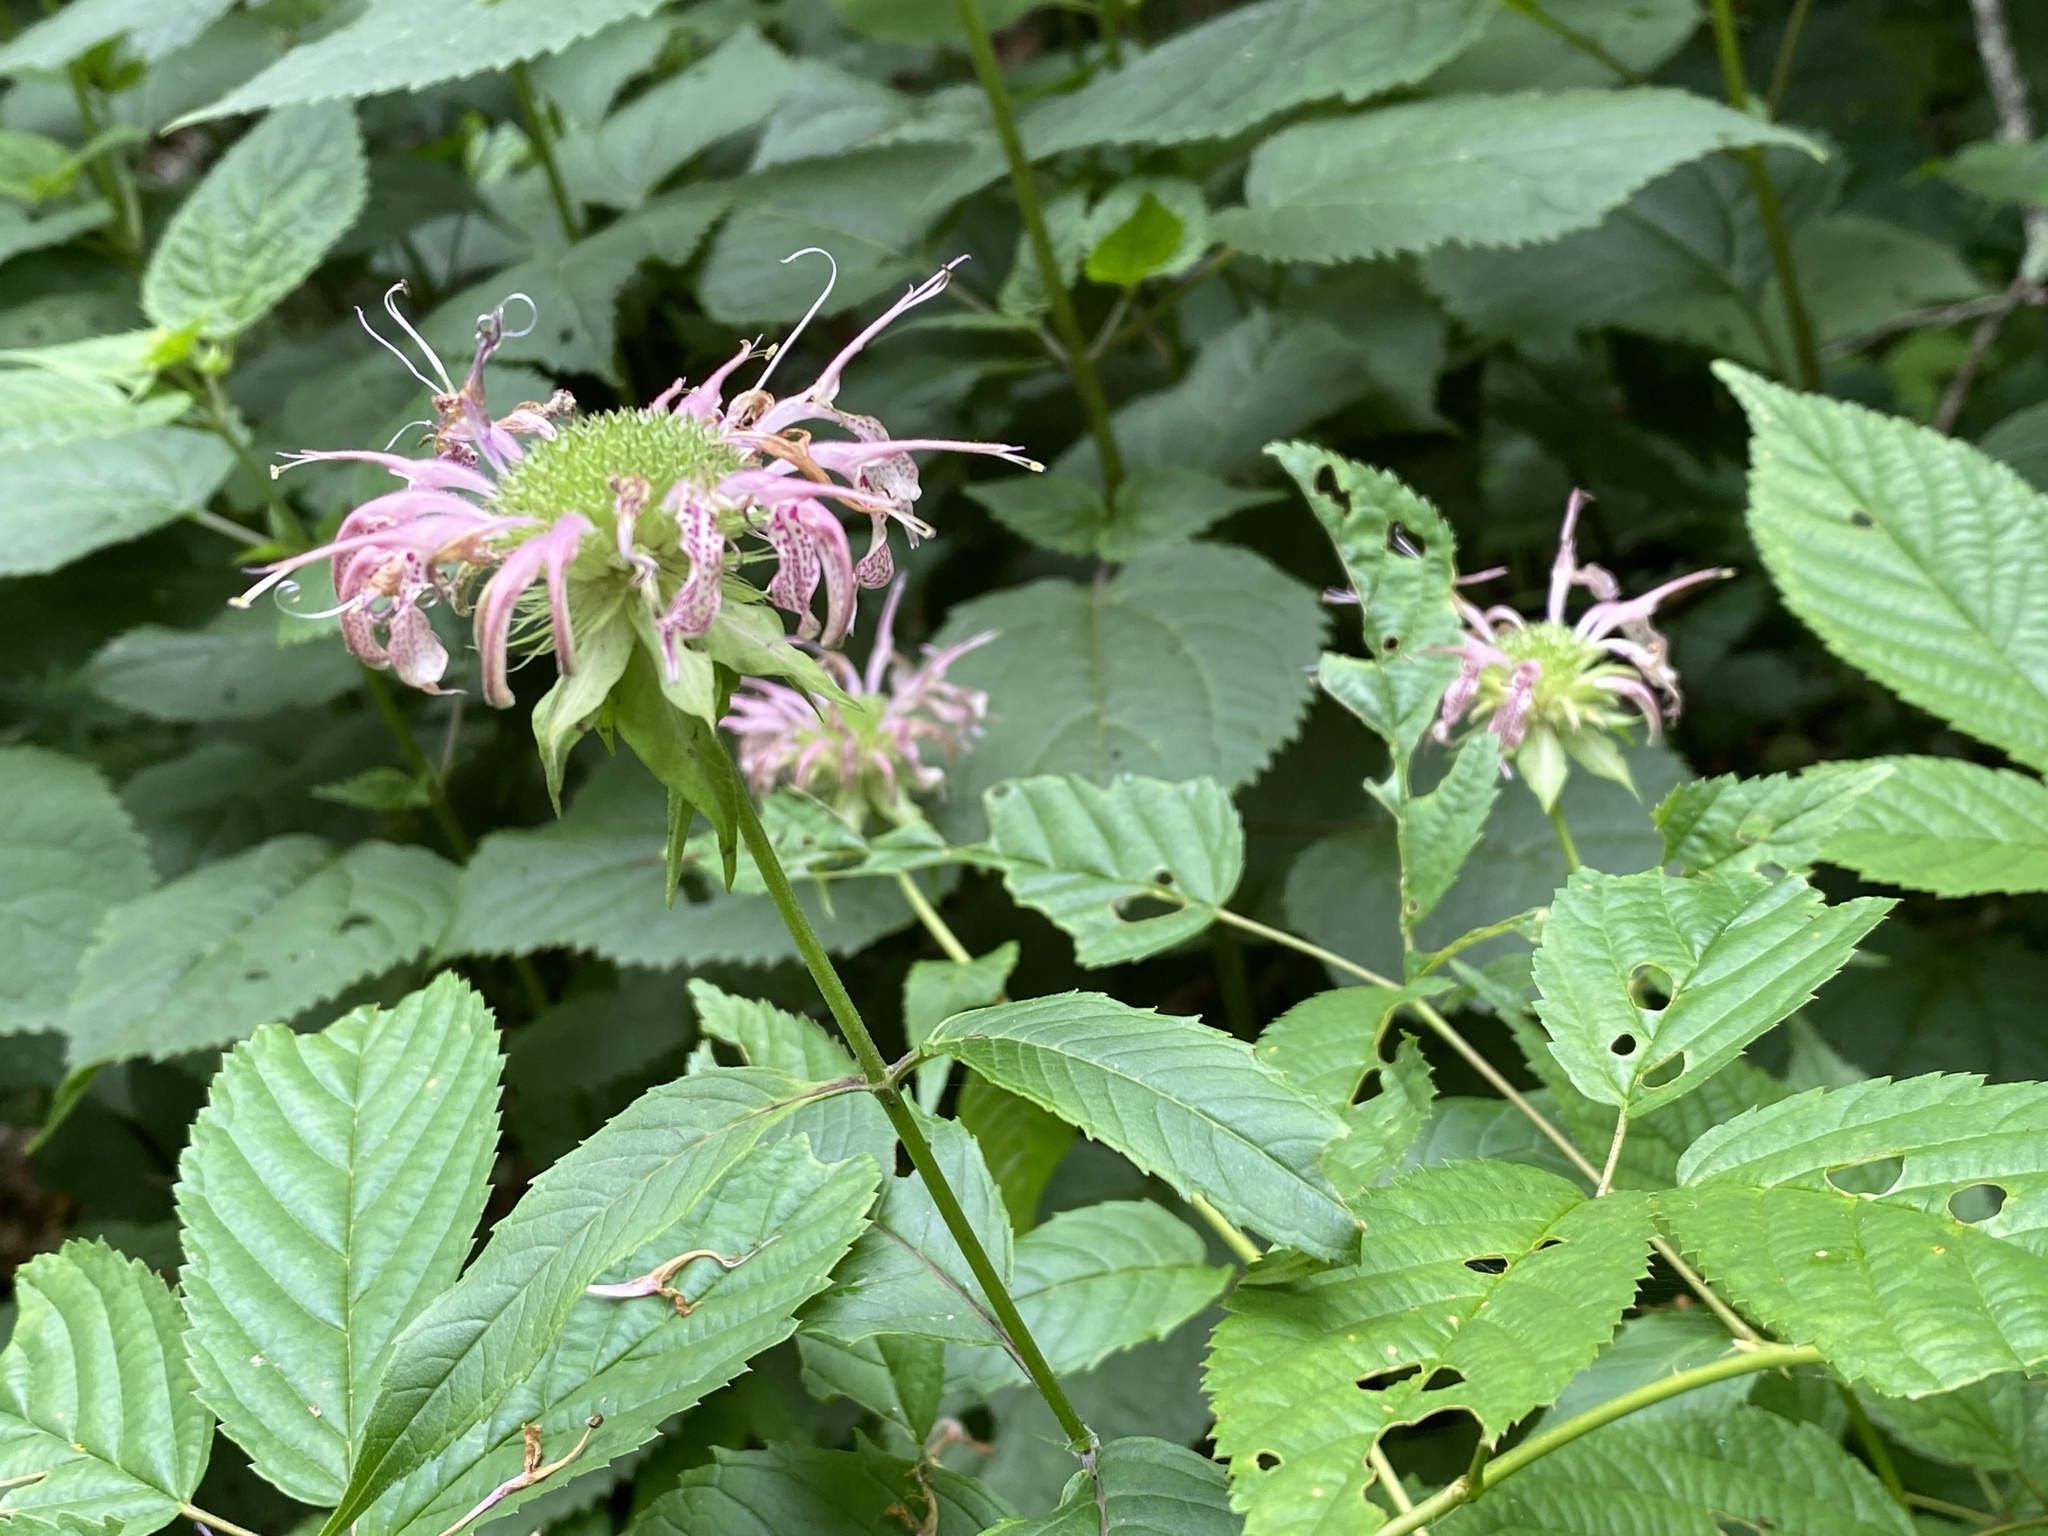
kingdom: Plantae
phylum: Tracheophyta
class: Magnoliopsida
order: Lamiales
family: Lamiaceae
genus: Monarda
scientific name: Monarda clinopodia
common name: Basil beebalm
